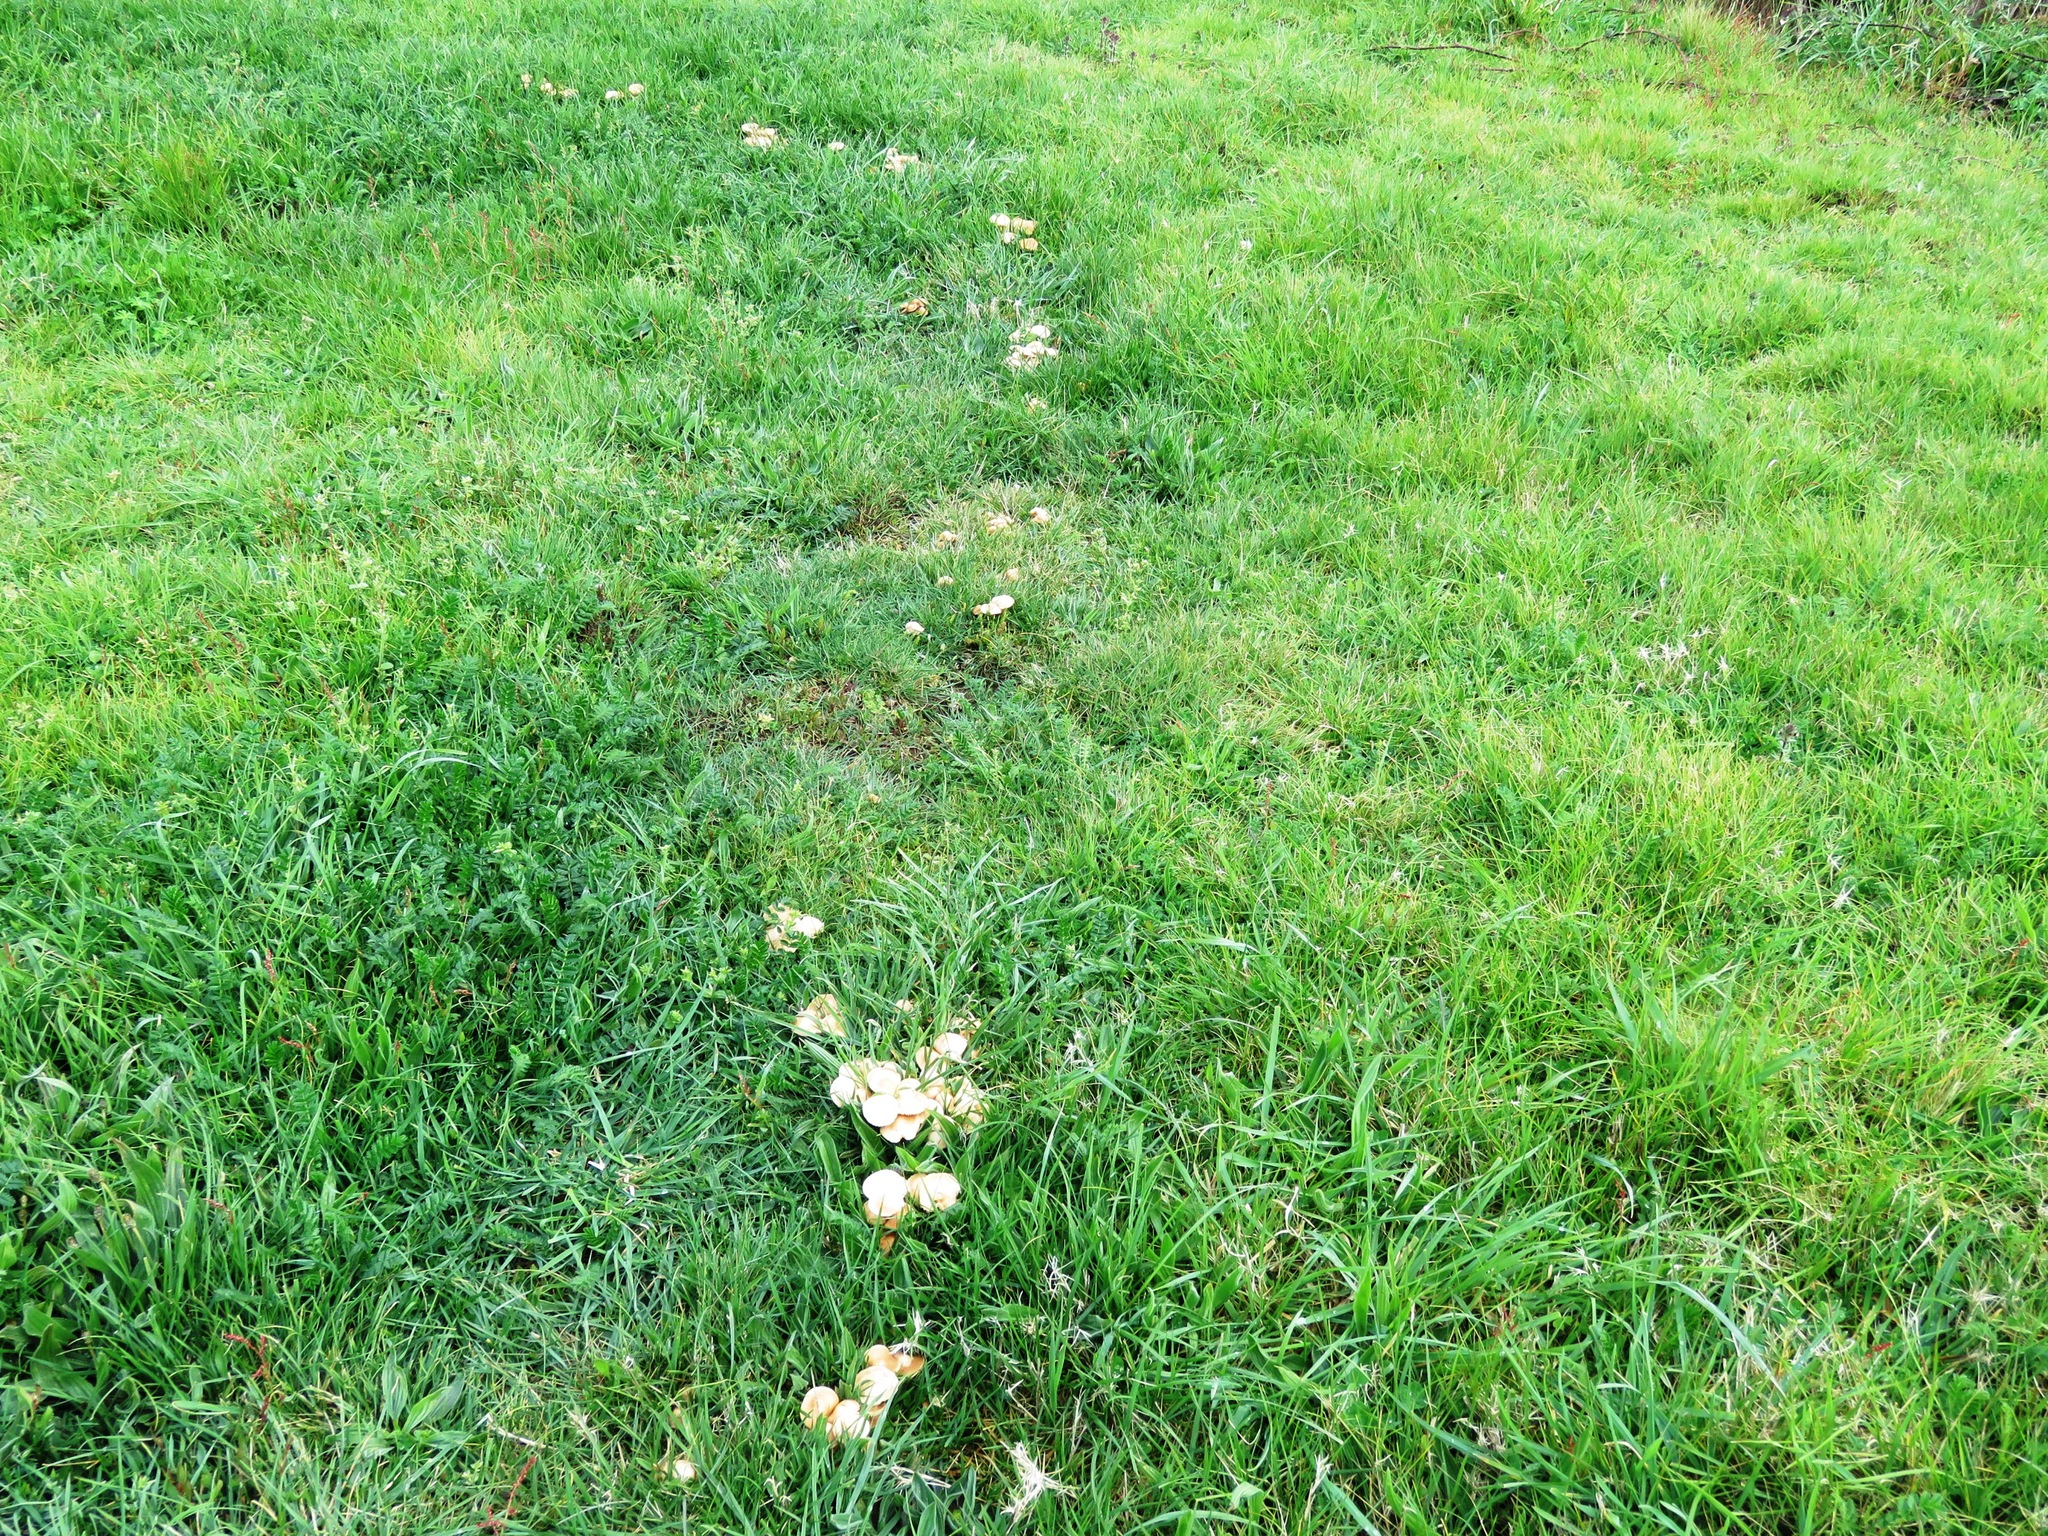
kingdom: Fungi
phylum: Basidiomycota
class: Agaricomycetes
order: Agaricales
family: Marasmiaceae
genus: Marasmius
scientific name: Marasmius oreades
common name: Fairy ring champignon
